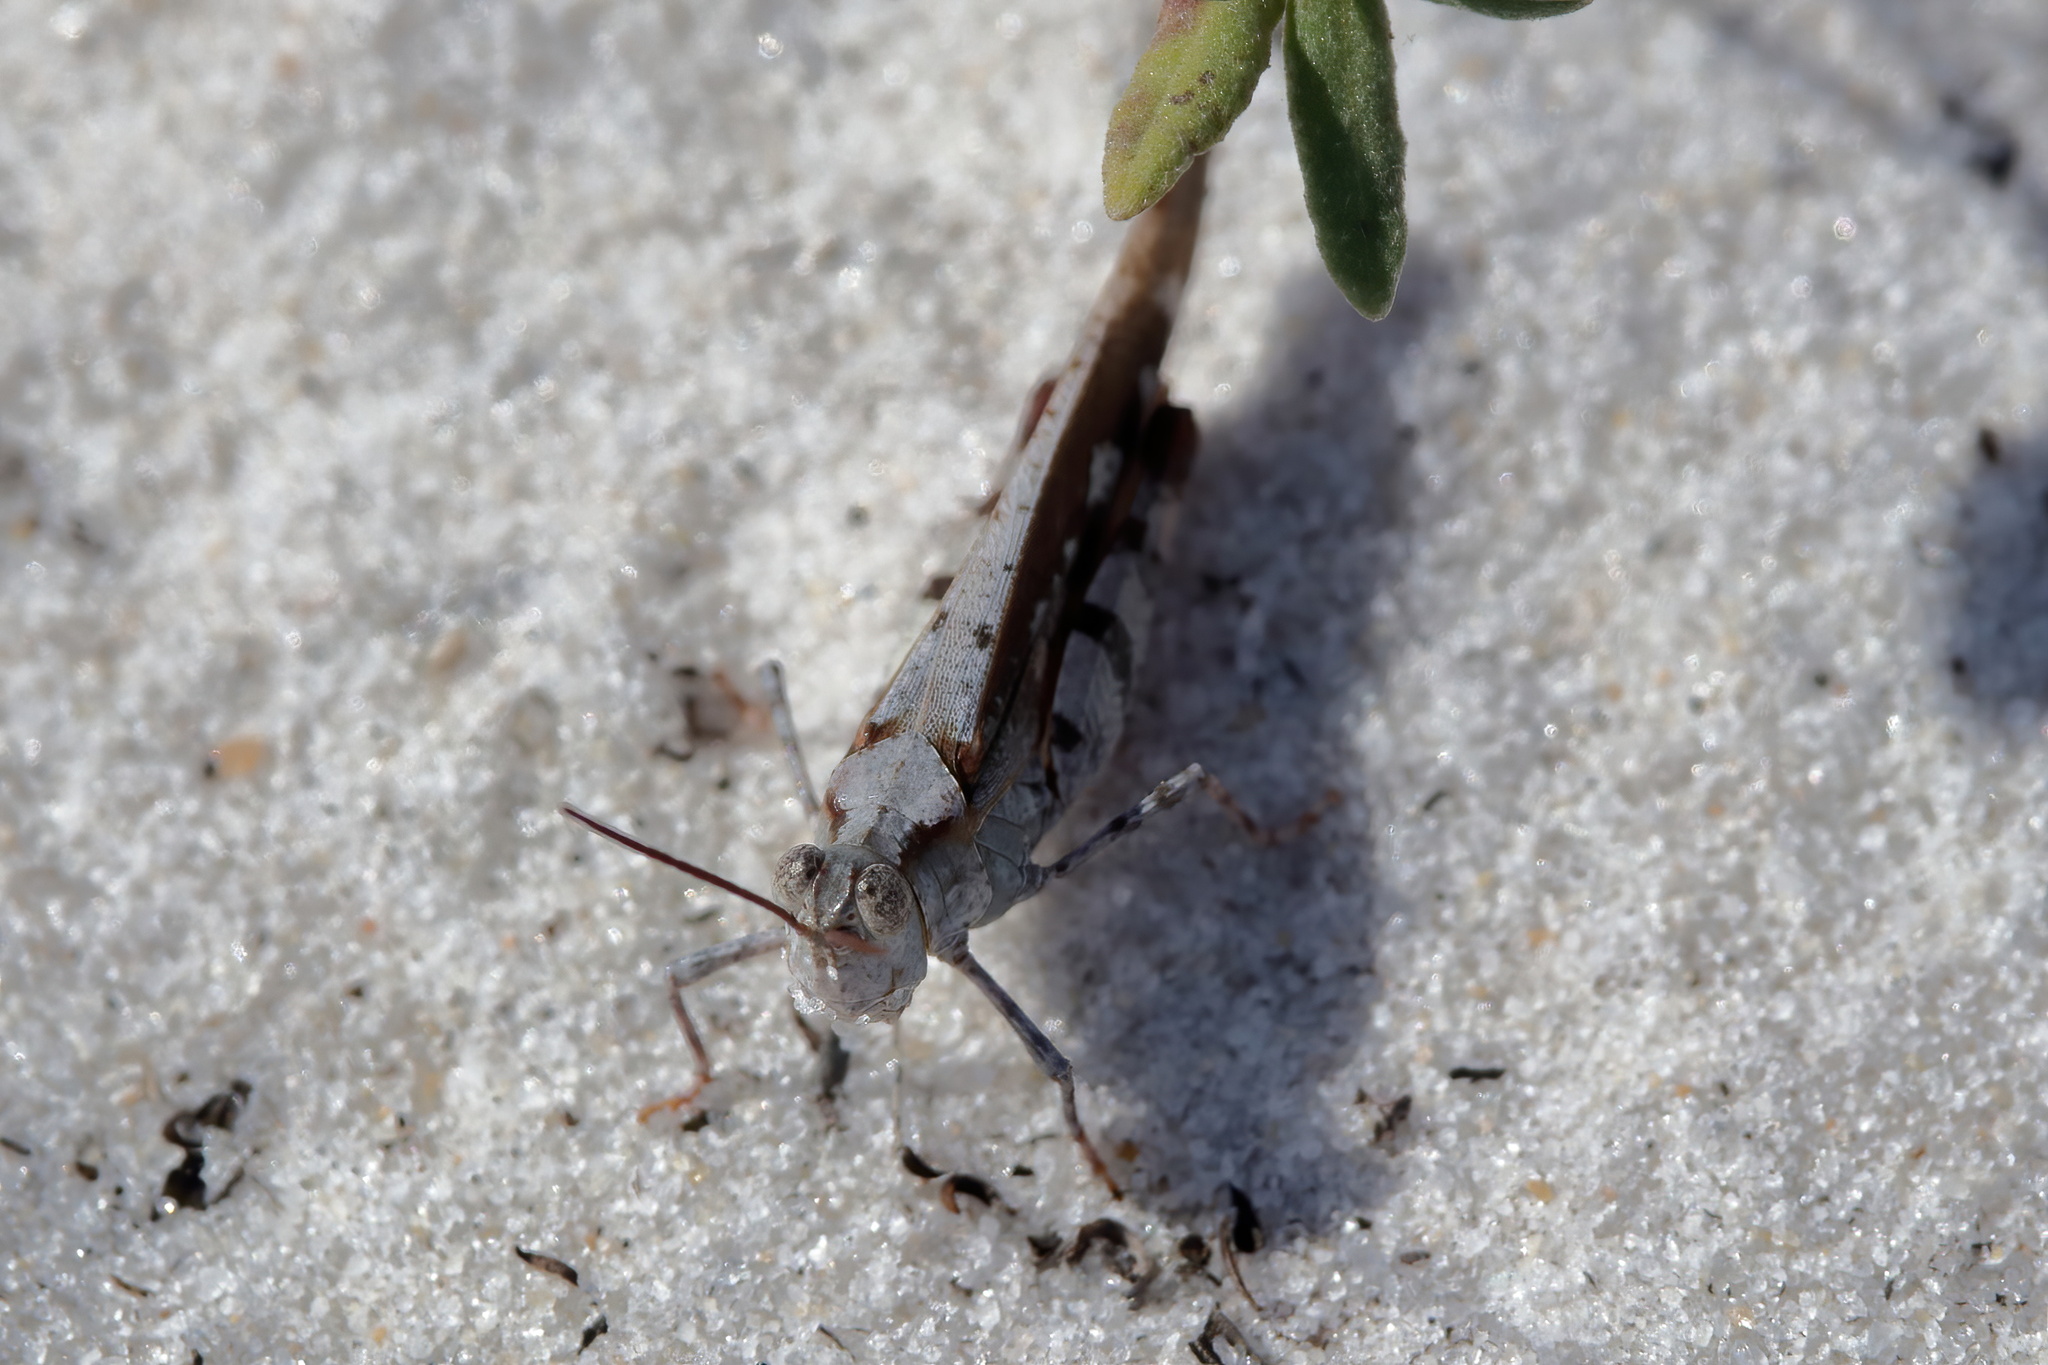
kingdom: Animalia
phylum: Arthropoda
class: Insecta
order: Orthoptera
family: Acrididae
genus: Spharagemon
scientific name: Spharagemon marmoratum
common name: Marbled grasshopper
